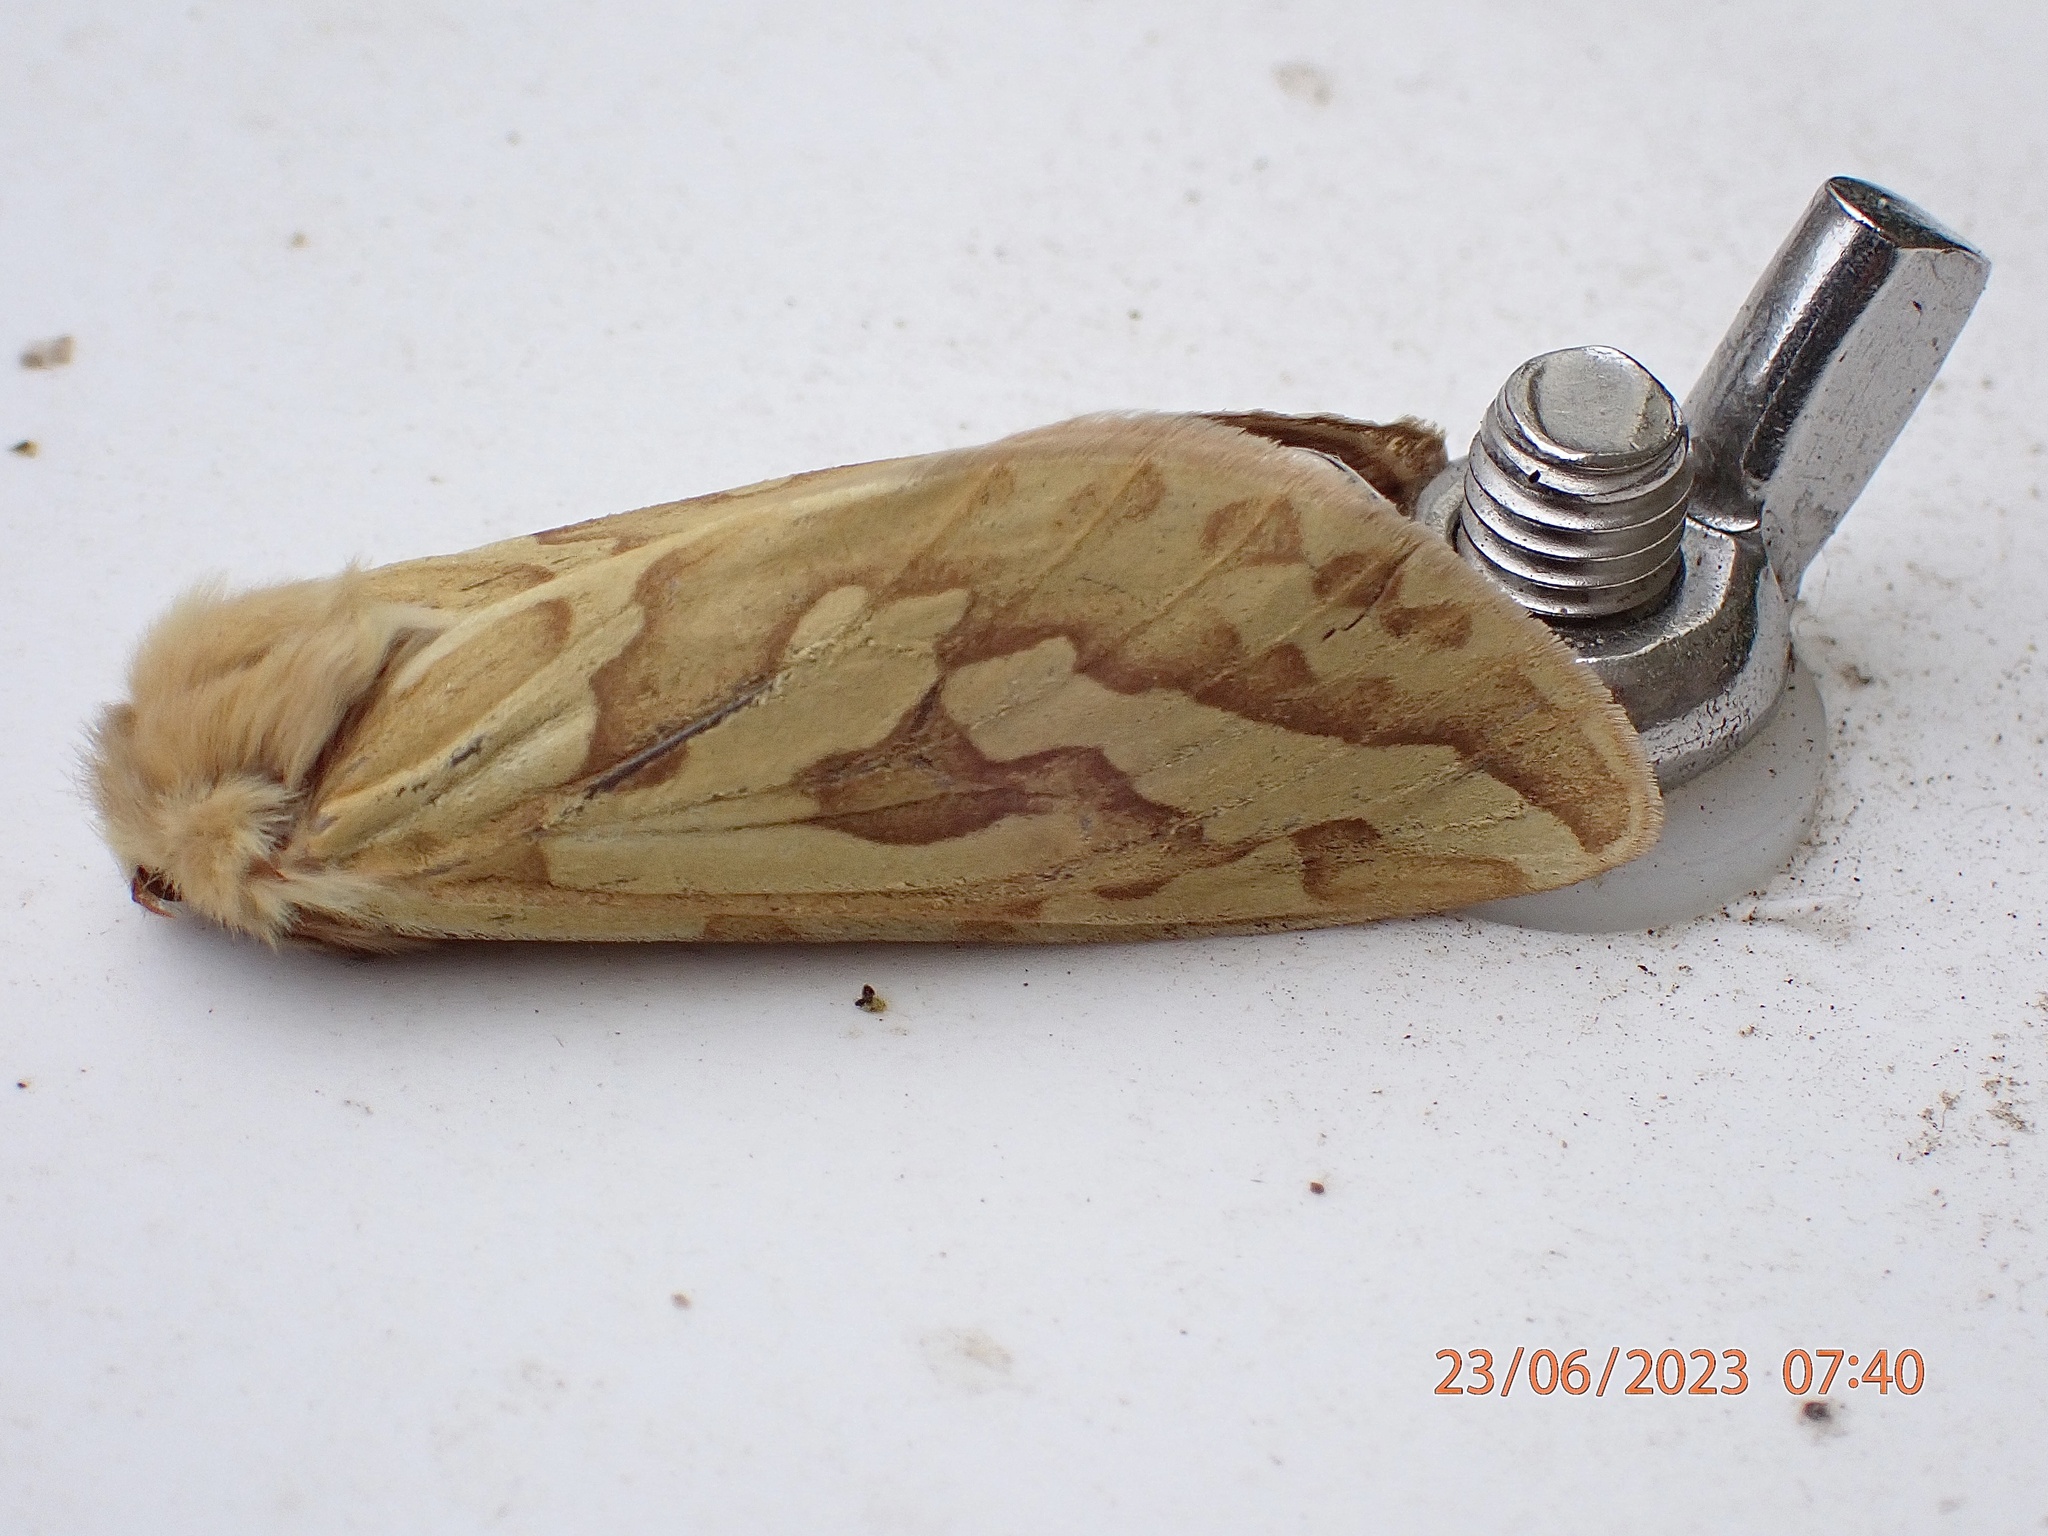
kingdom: Animalia
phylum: Arthropoda
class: Insecta
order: Lepidoptera
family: Hepialidae
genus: Hepialus
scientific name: Hepialus humuli
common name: Ghost moth
